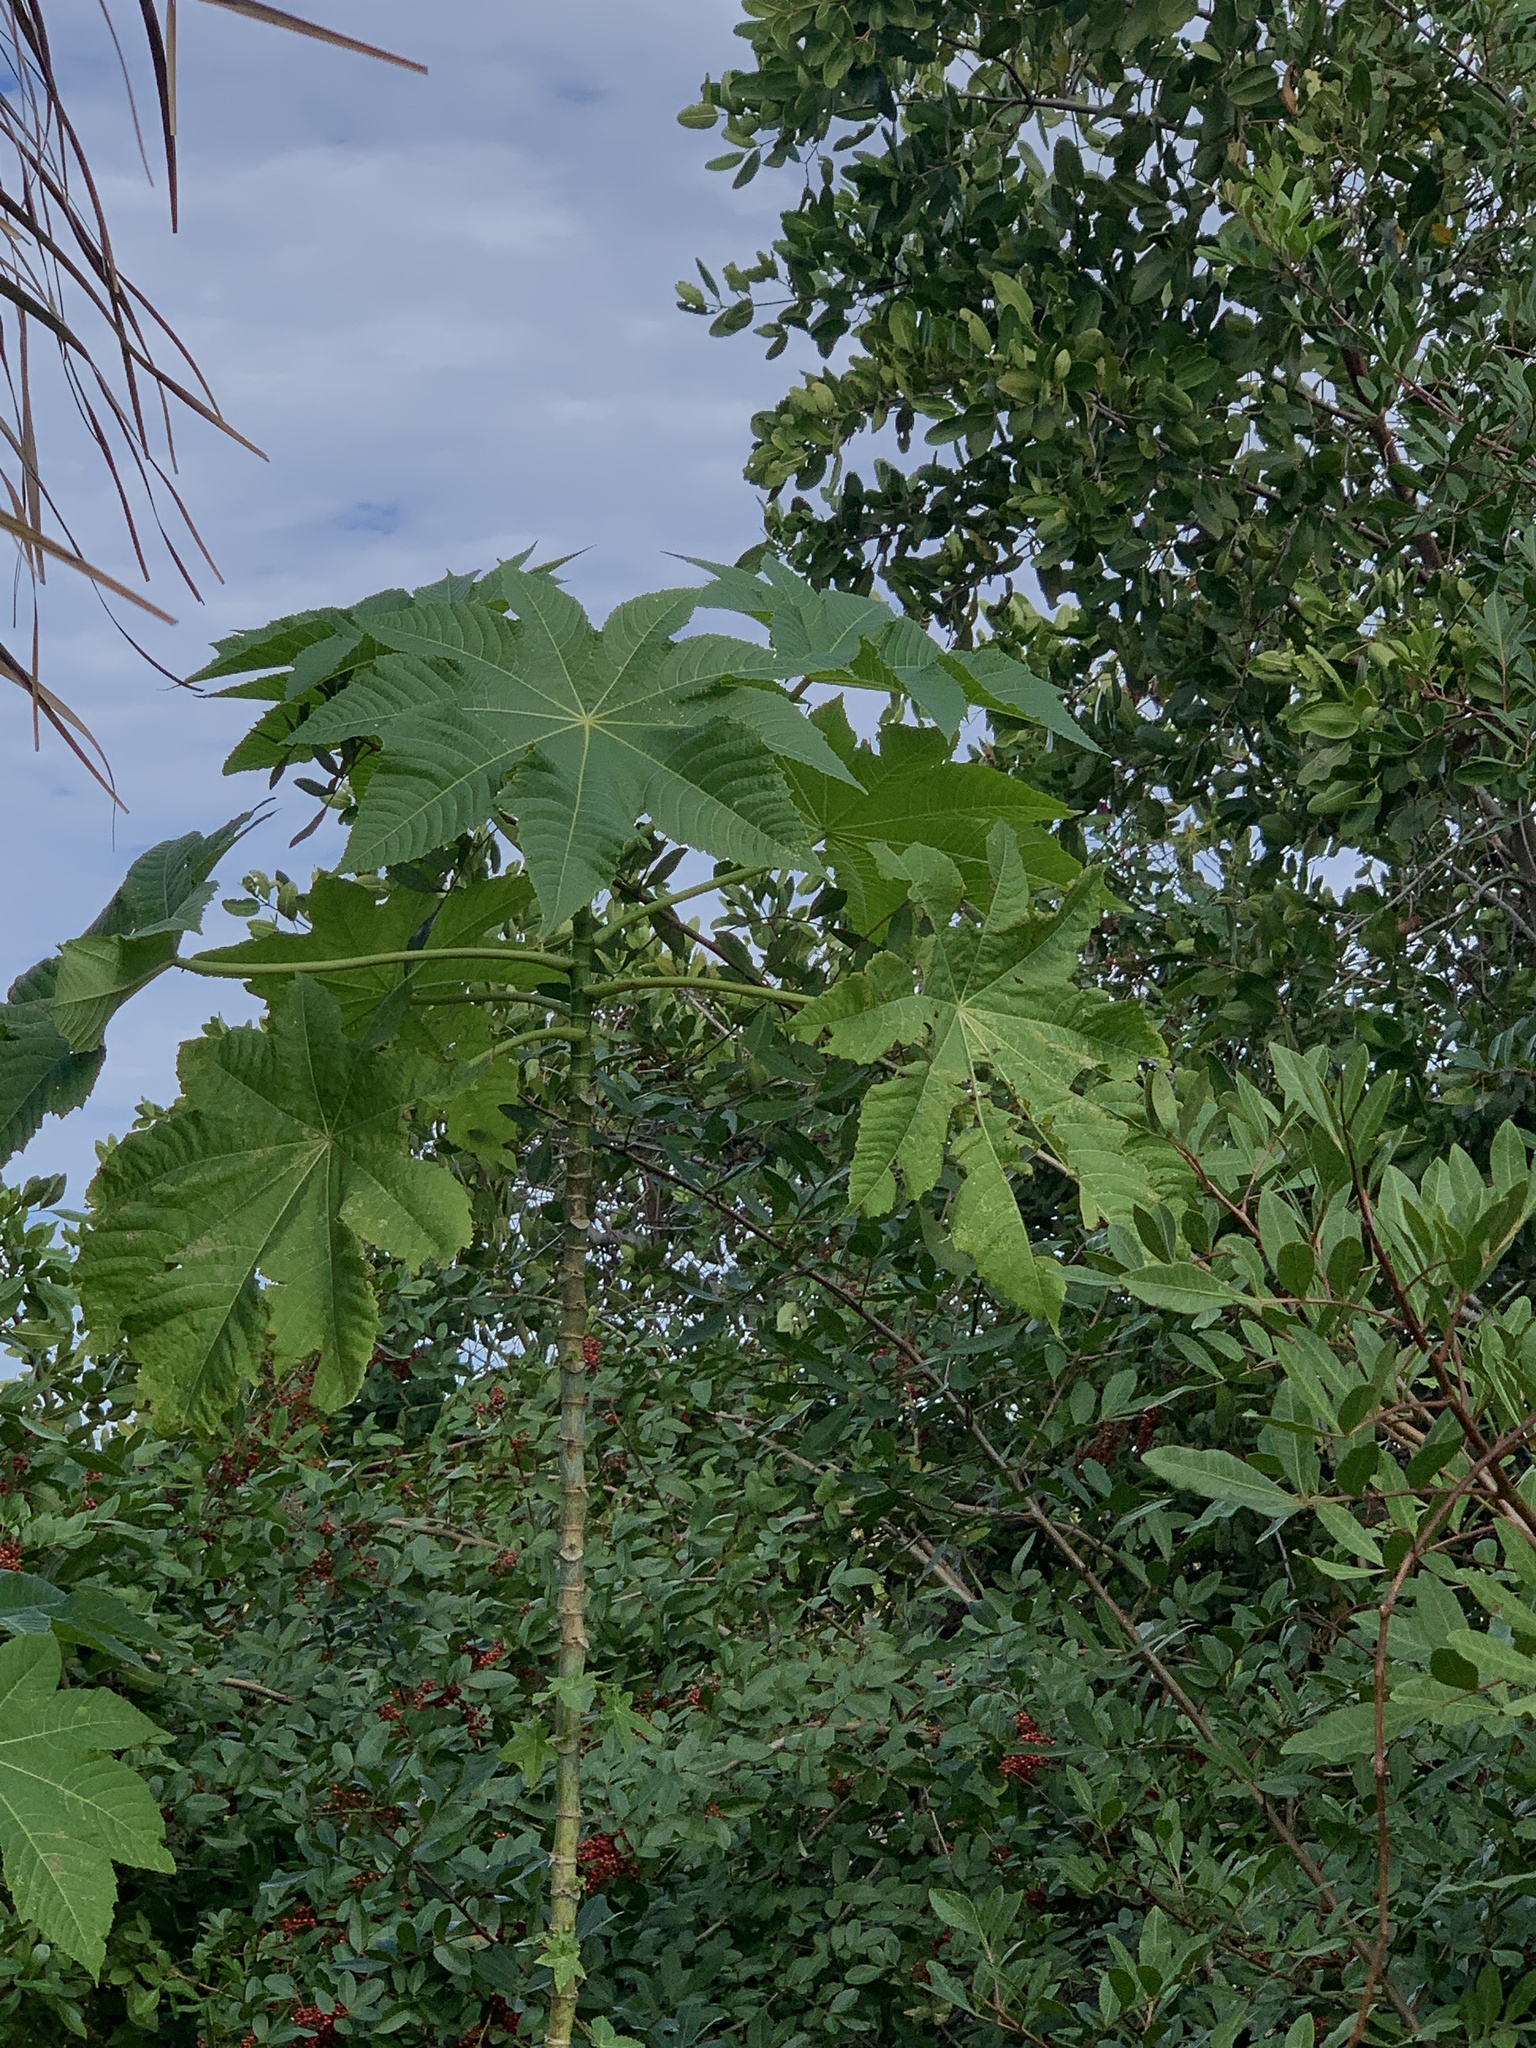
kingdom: Plantae
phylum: Tracheophyta
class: Magnoliopsida
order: Malpighiales
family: Euphorbiaceae
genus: Ricinus
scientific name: Ricinus communis
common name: Castor-oil-plant
